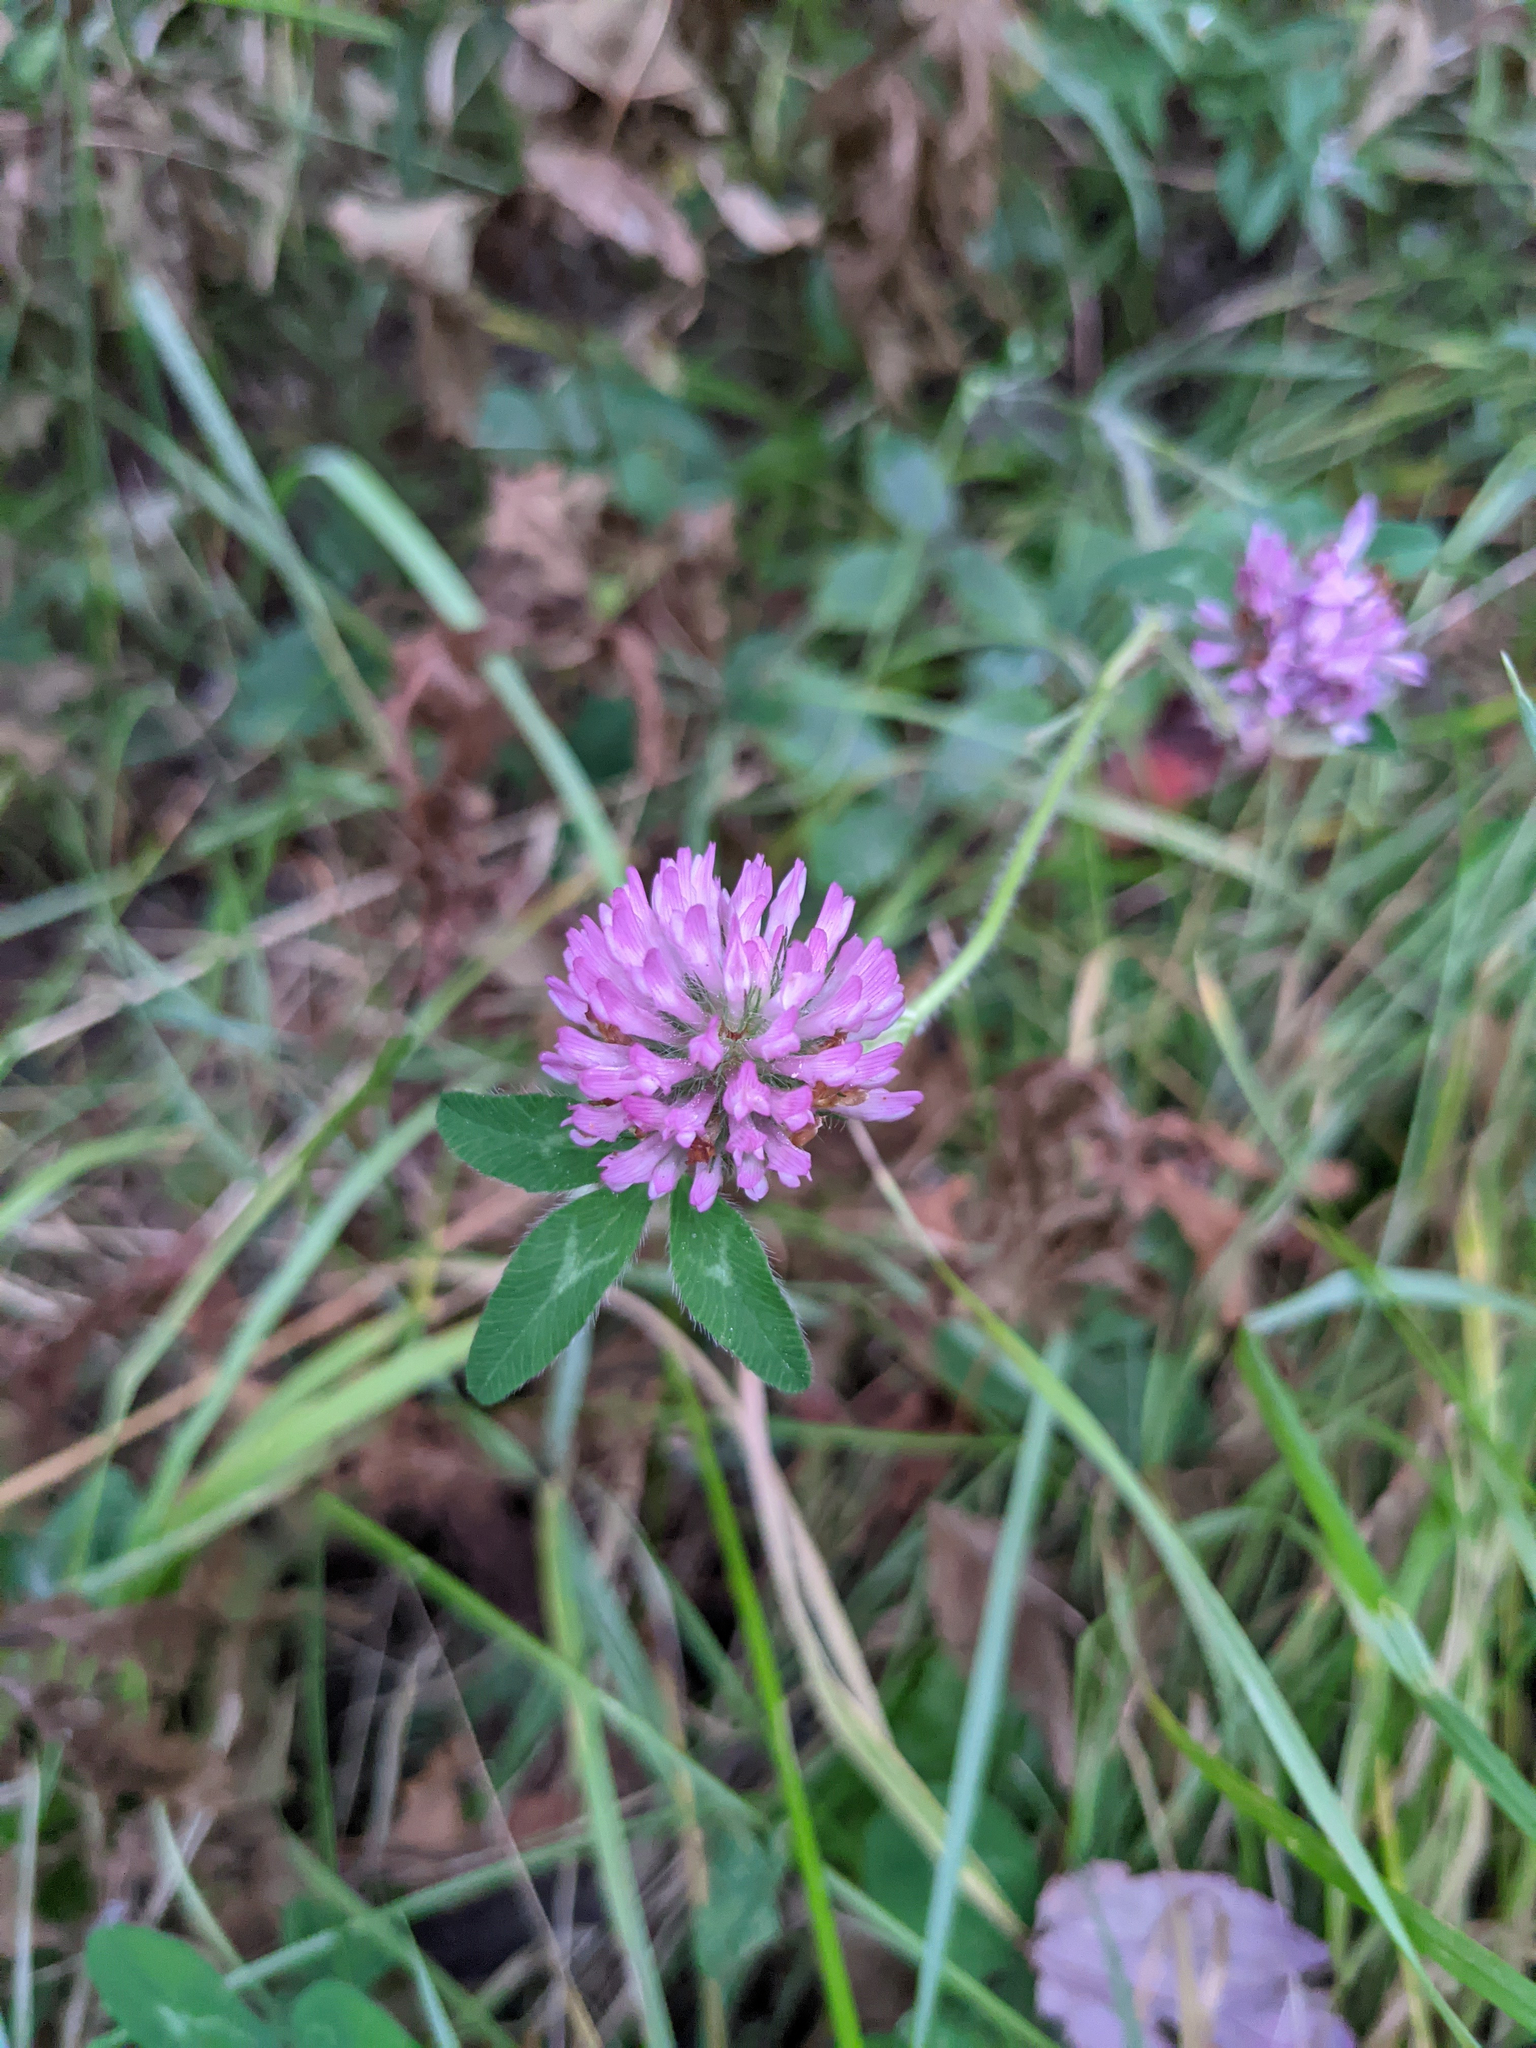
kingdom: Plantae
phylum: Tracheophyta
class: Magnoliopsida
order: Fabales
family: Fabaceae
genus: Trifolium
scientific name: Trifolium pratense
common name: Red clover
